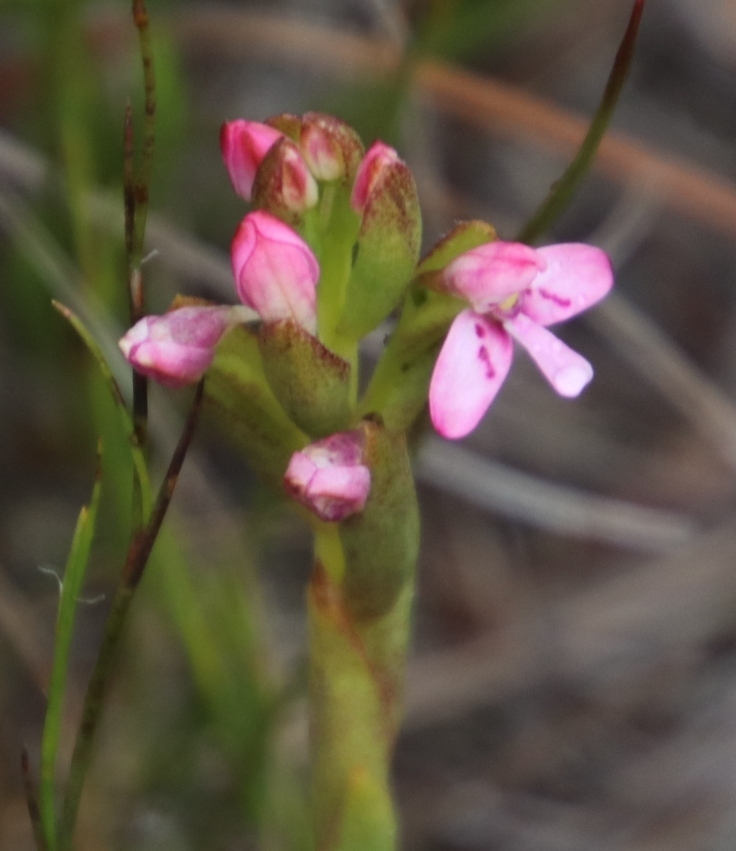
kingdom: Plantae
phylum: Tracheophyta
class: Liliopsida
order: Asparagales
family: Orchidaceae
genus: Disa
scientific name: Disa vaginata
